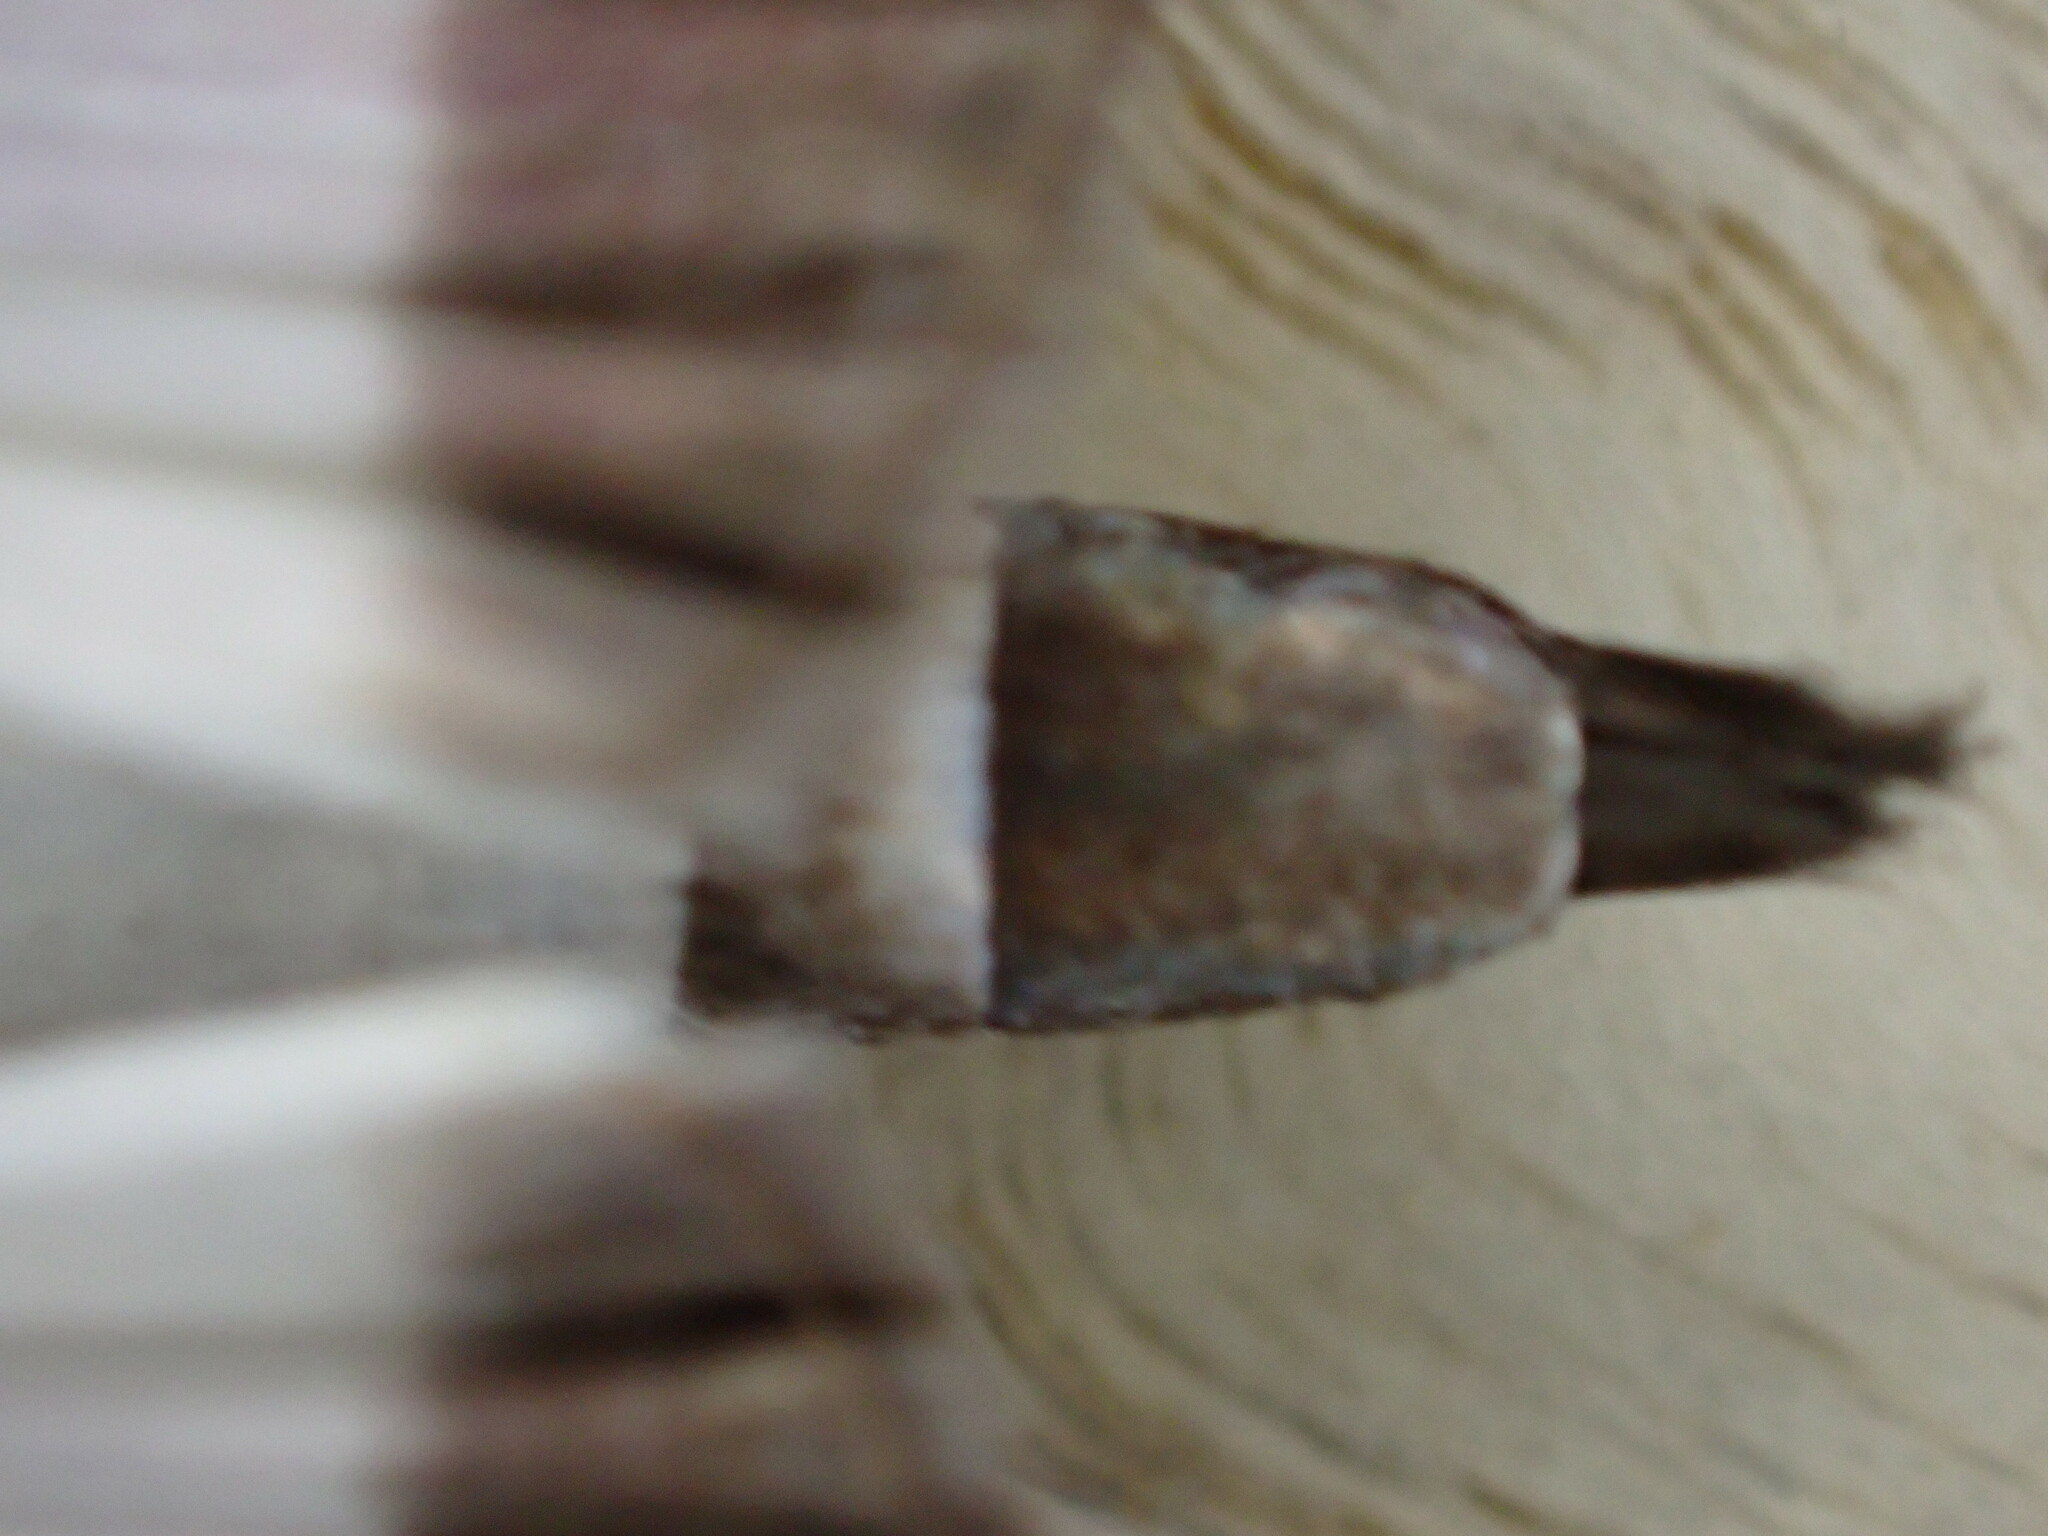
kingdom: Animalia
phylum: Arthropoda
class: Insecta
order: Lepidoptera
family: Crambidae
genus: Cydalima
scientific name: Cydalima perspectalis
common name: Box tree moth
